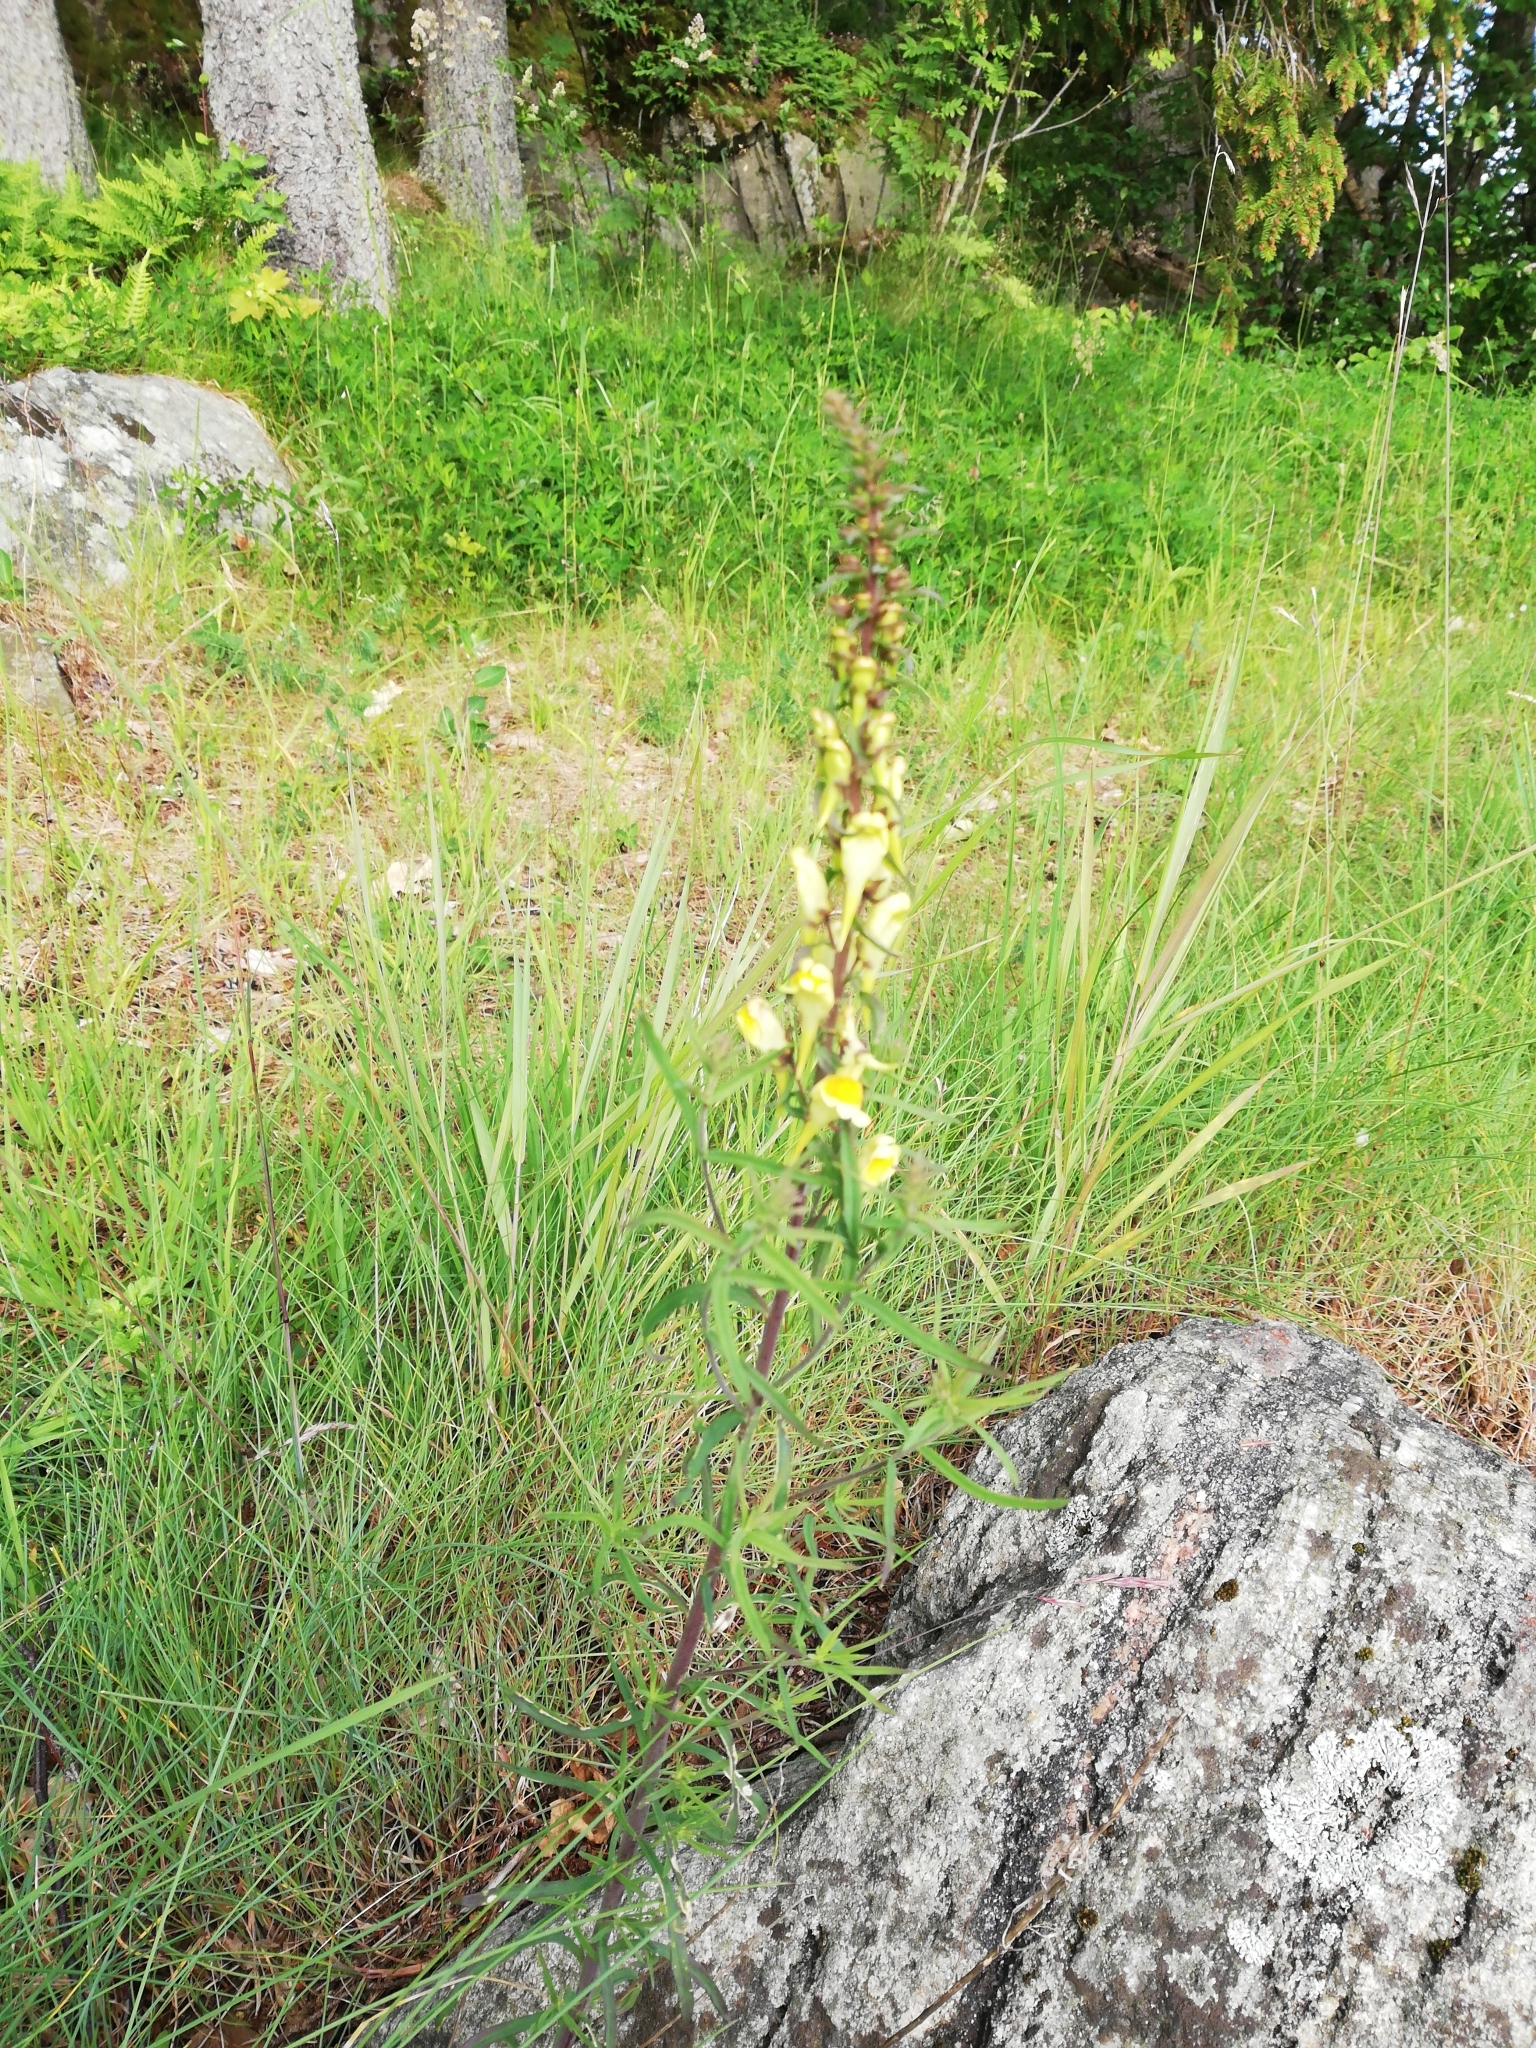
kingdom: Plantae
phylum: Tracheophyta
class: Magnoliopsida
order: Lamiales
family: Plantaginaceae
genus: Linaria
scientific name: Linaria vulgaris
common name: Butter and eggs
